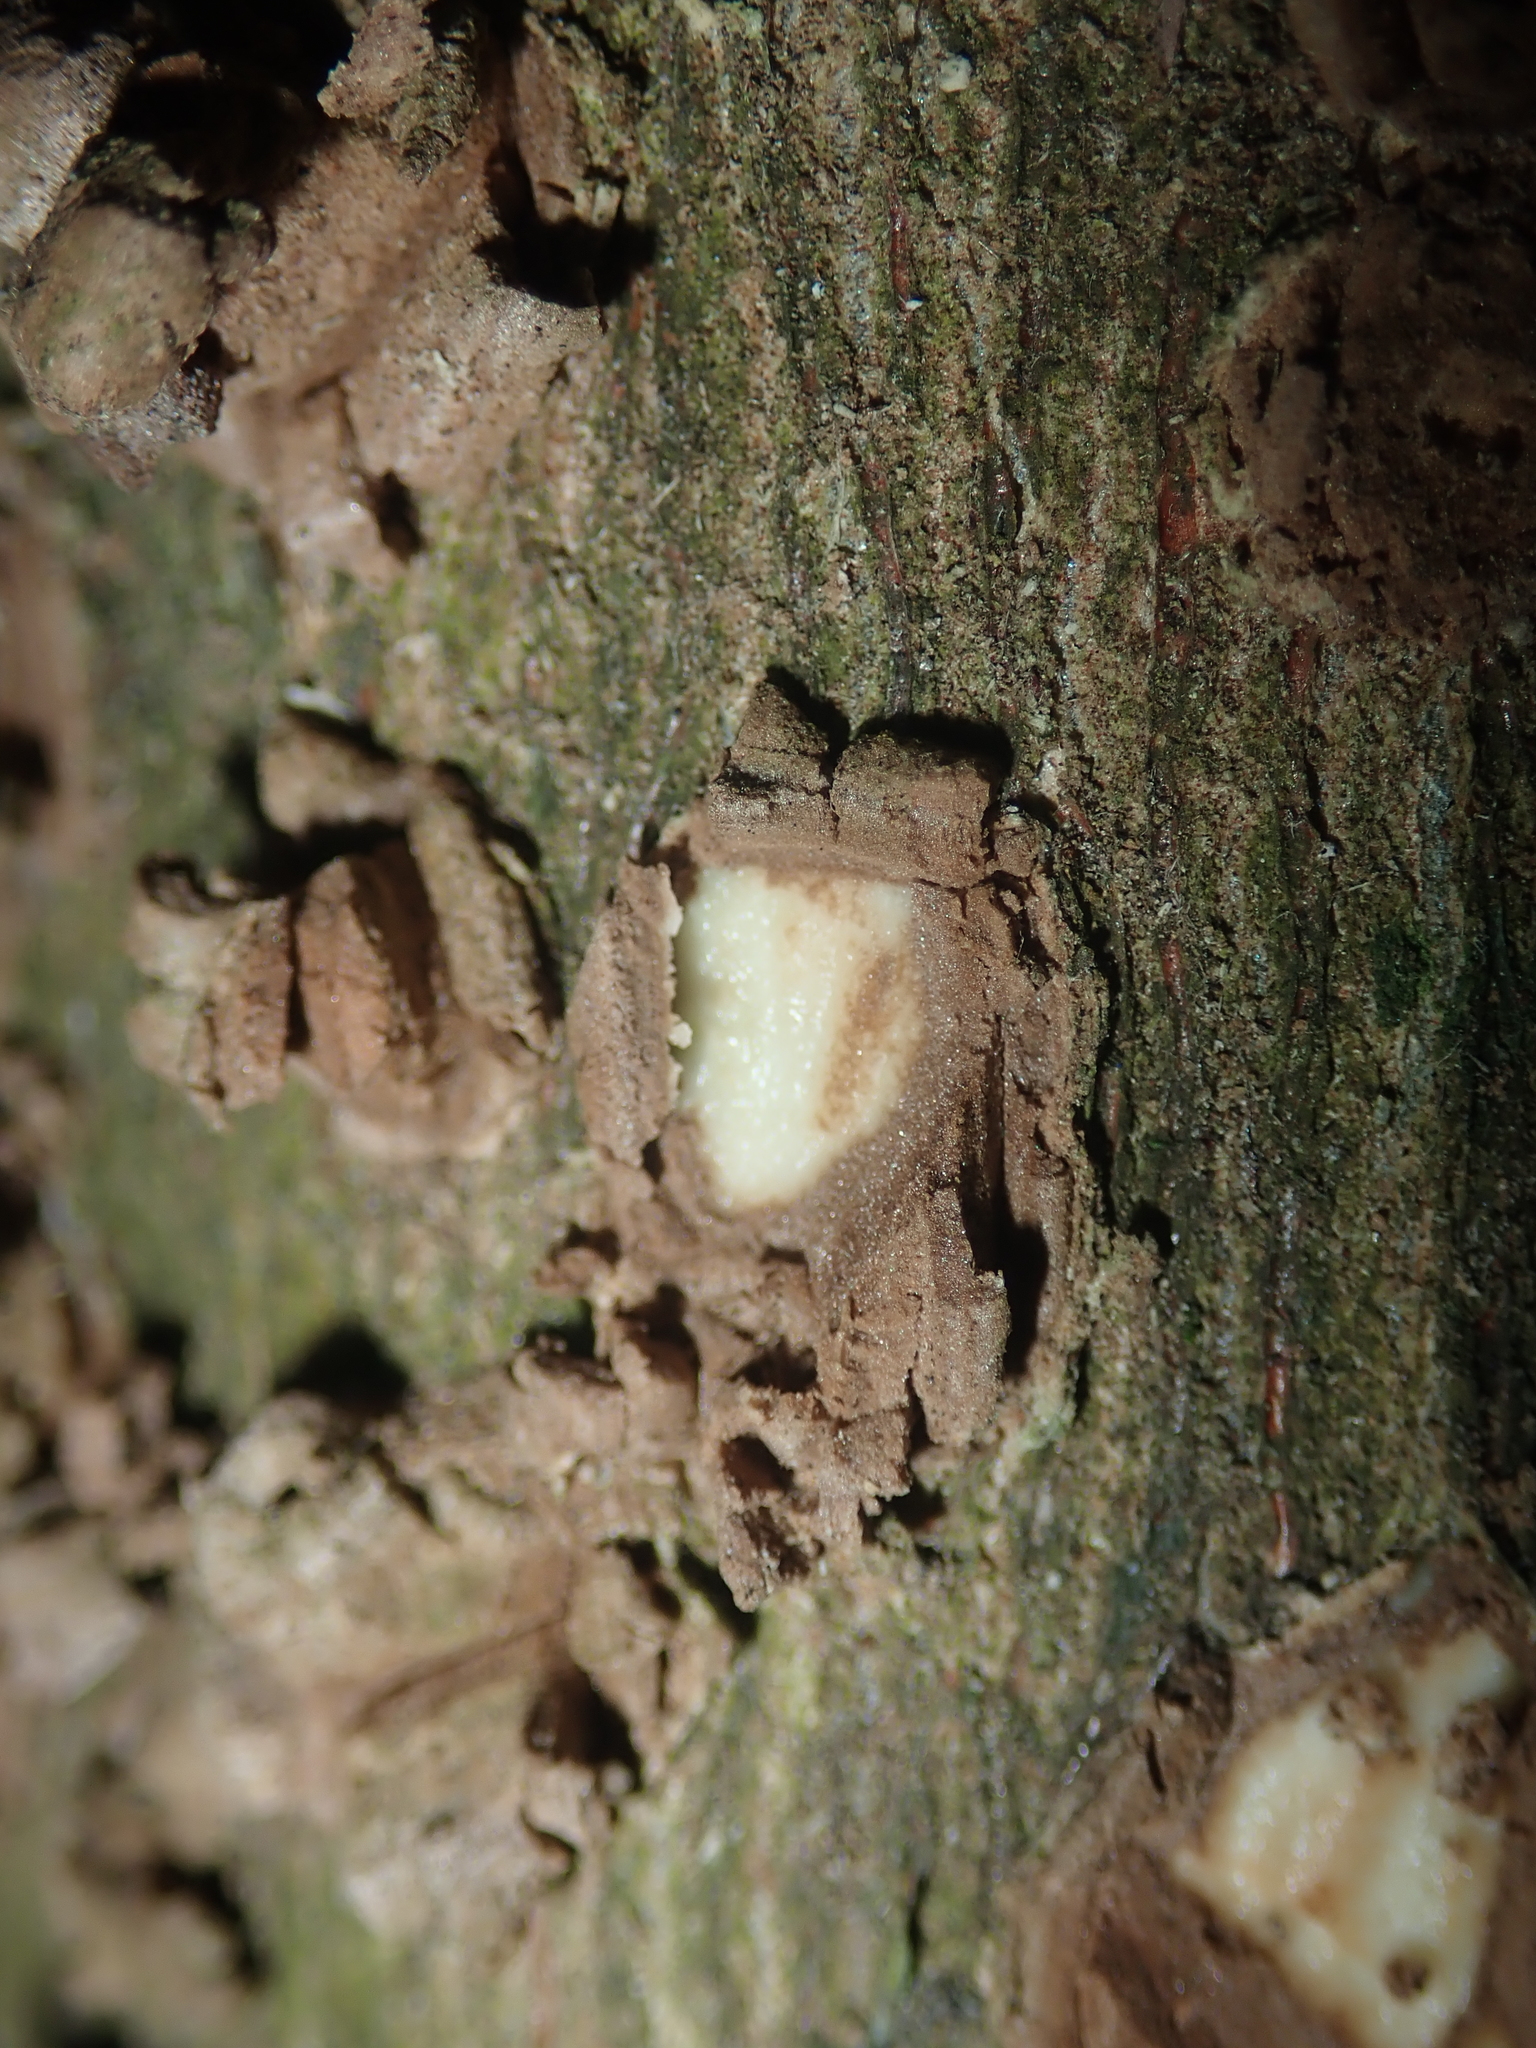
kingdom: Plantae
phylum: Tracheophyta
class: Magnoliopsida
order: Laurales
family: Monimiaceae
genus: Hedycarya
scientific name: Hedycarya arborea
